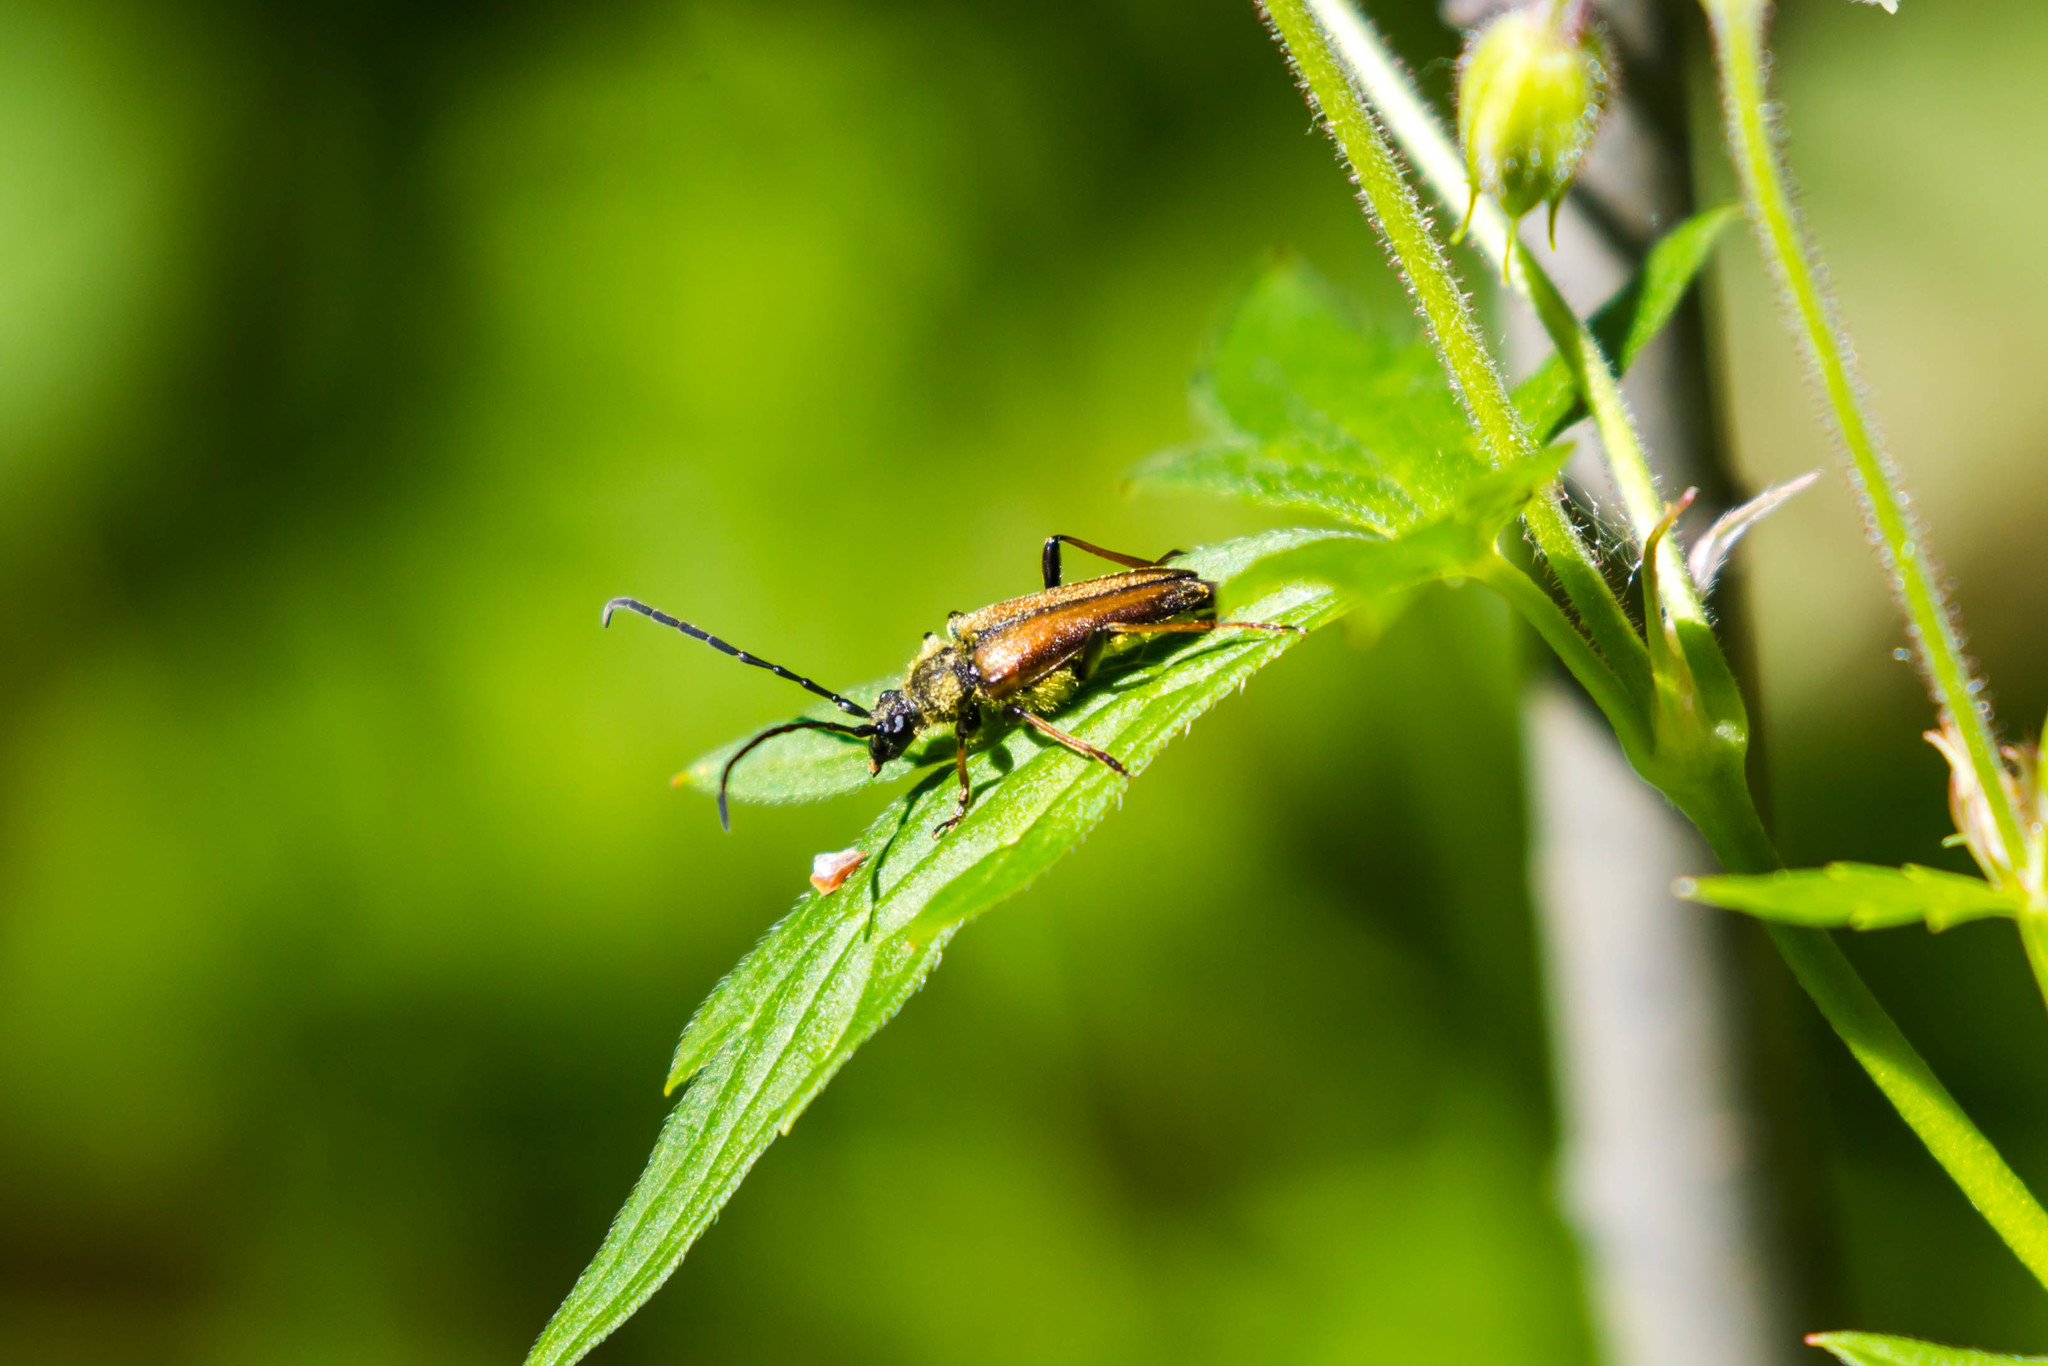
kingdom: Animalia
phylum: Arthropoda
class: Insecta
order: Coleoptera
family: Cerambycidae
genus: Lepturobosca
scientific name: Lepturobosca
